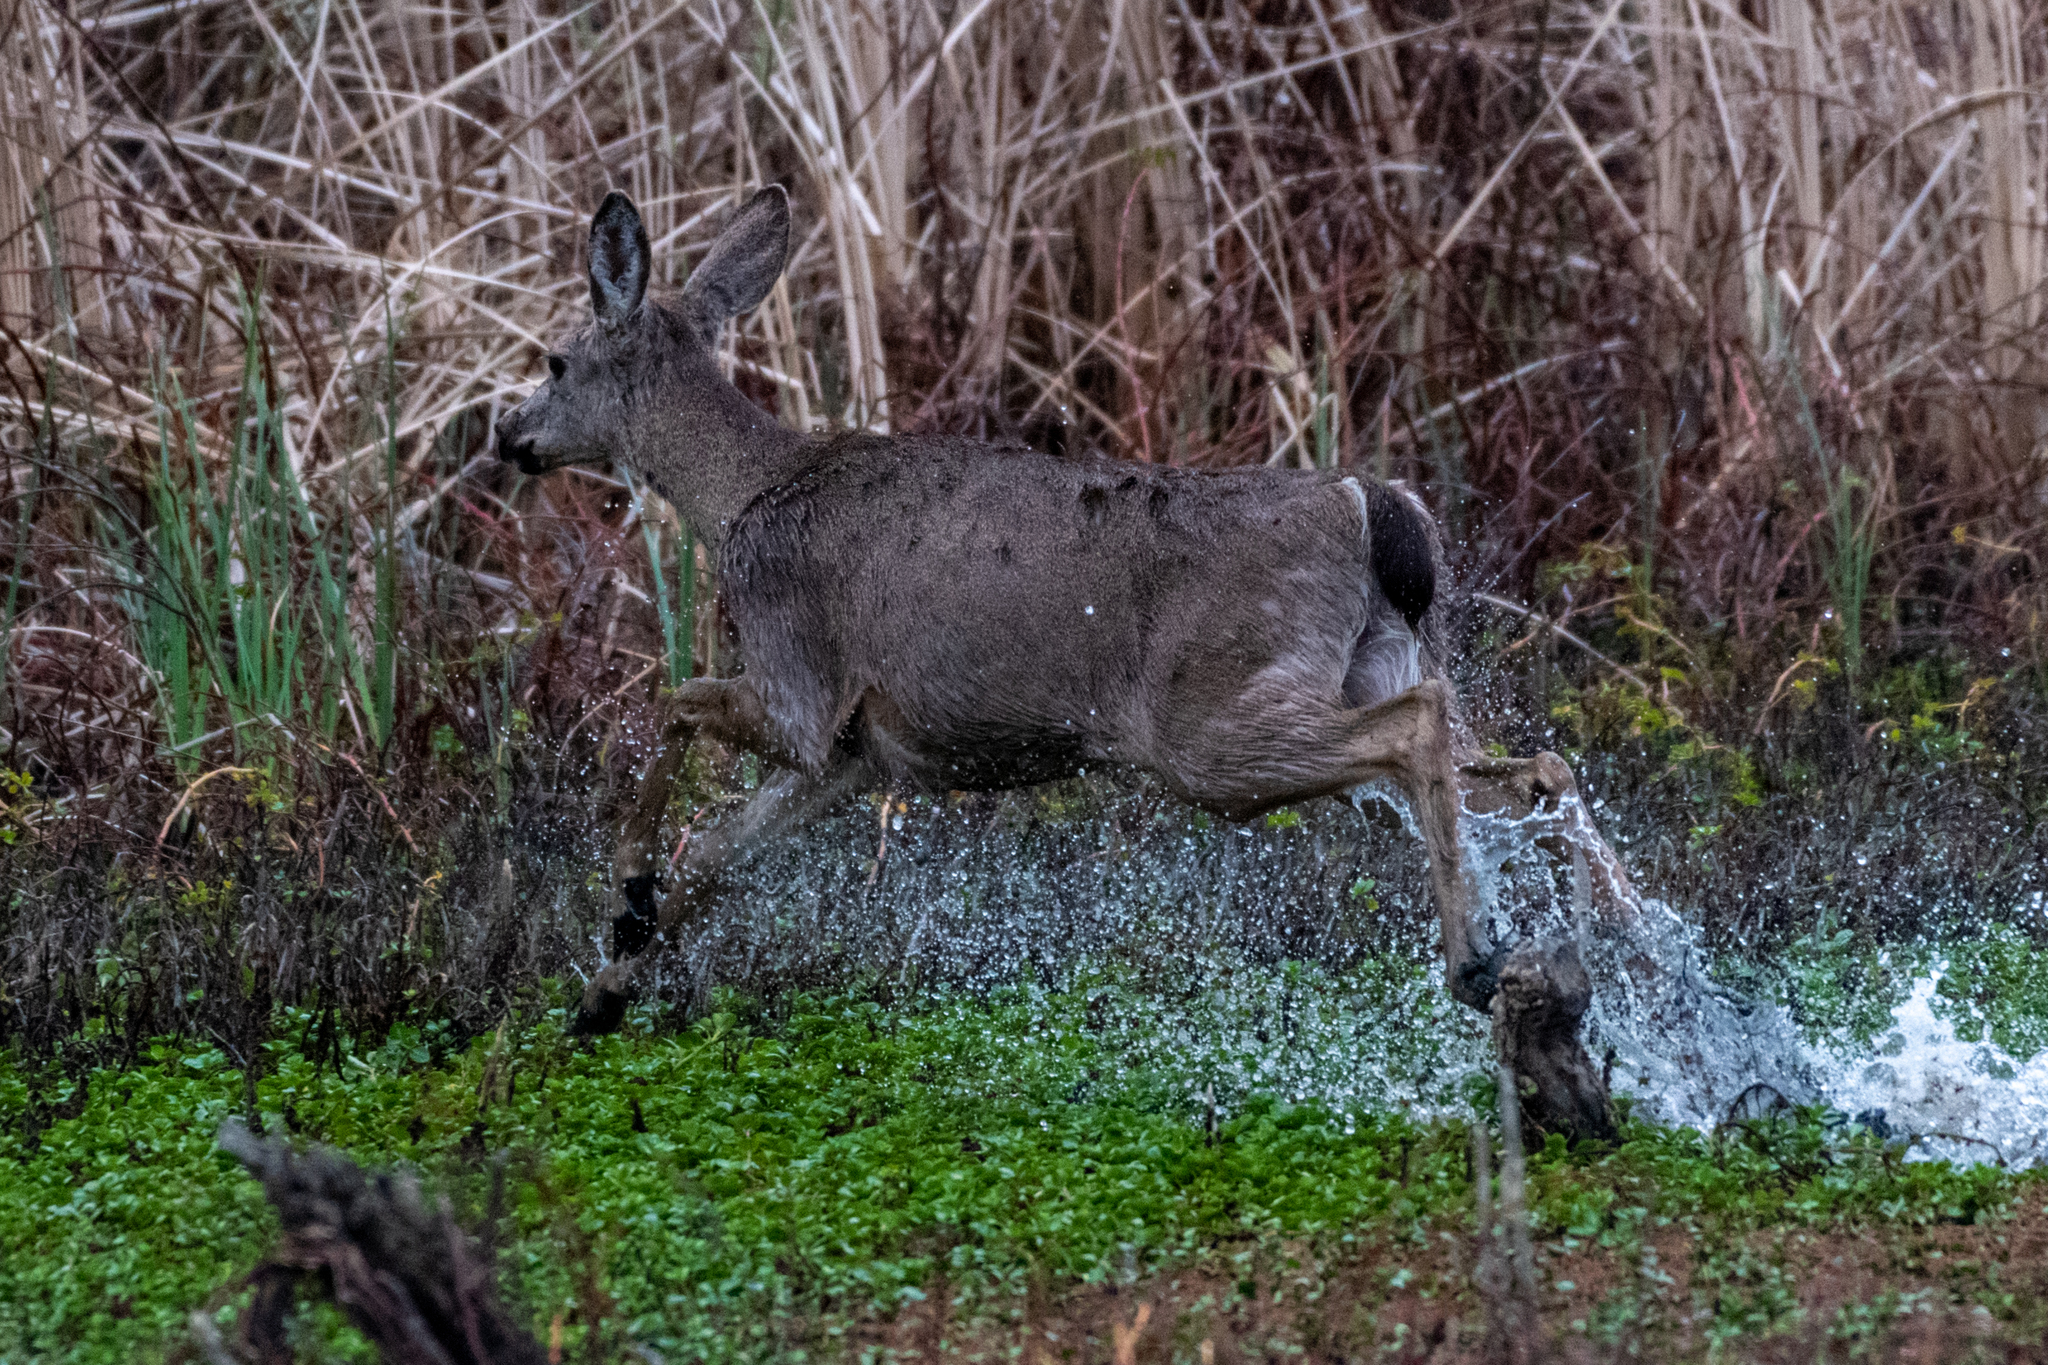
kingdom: Animalia
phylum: Chordata
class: Mammalia
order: Artiodactyla
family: Cervidae
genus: Odocoileus
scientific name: Odocoileus hemionus
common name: Mule deer
